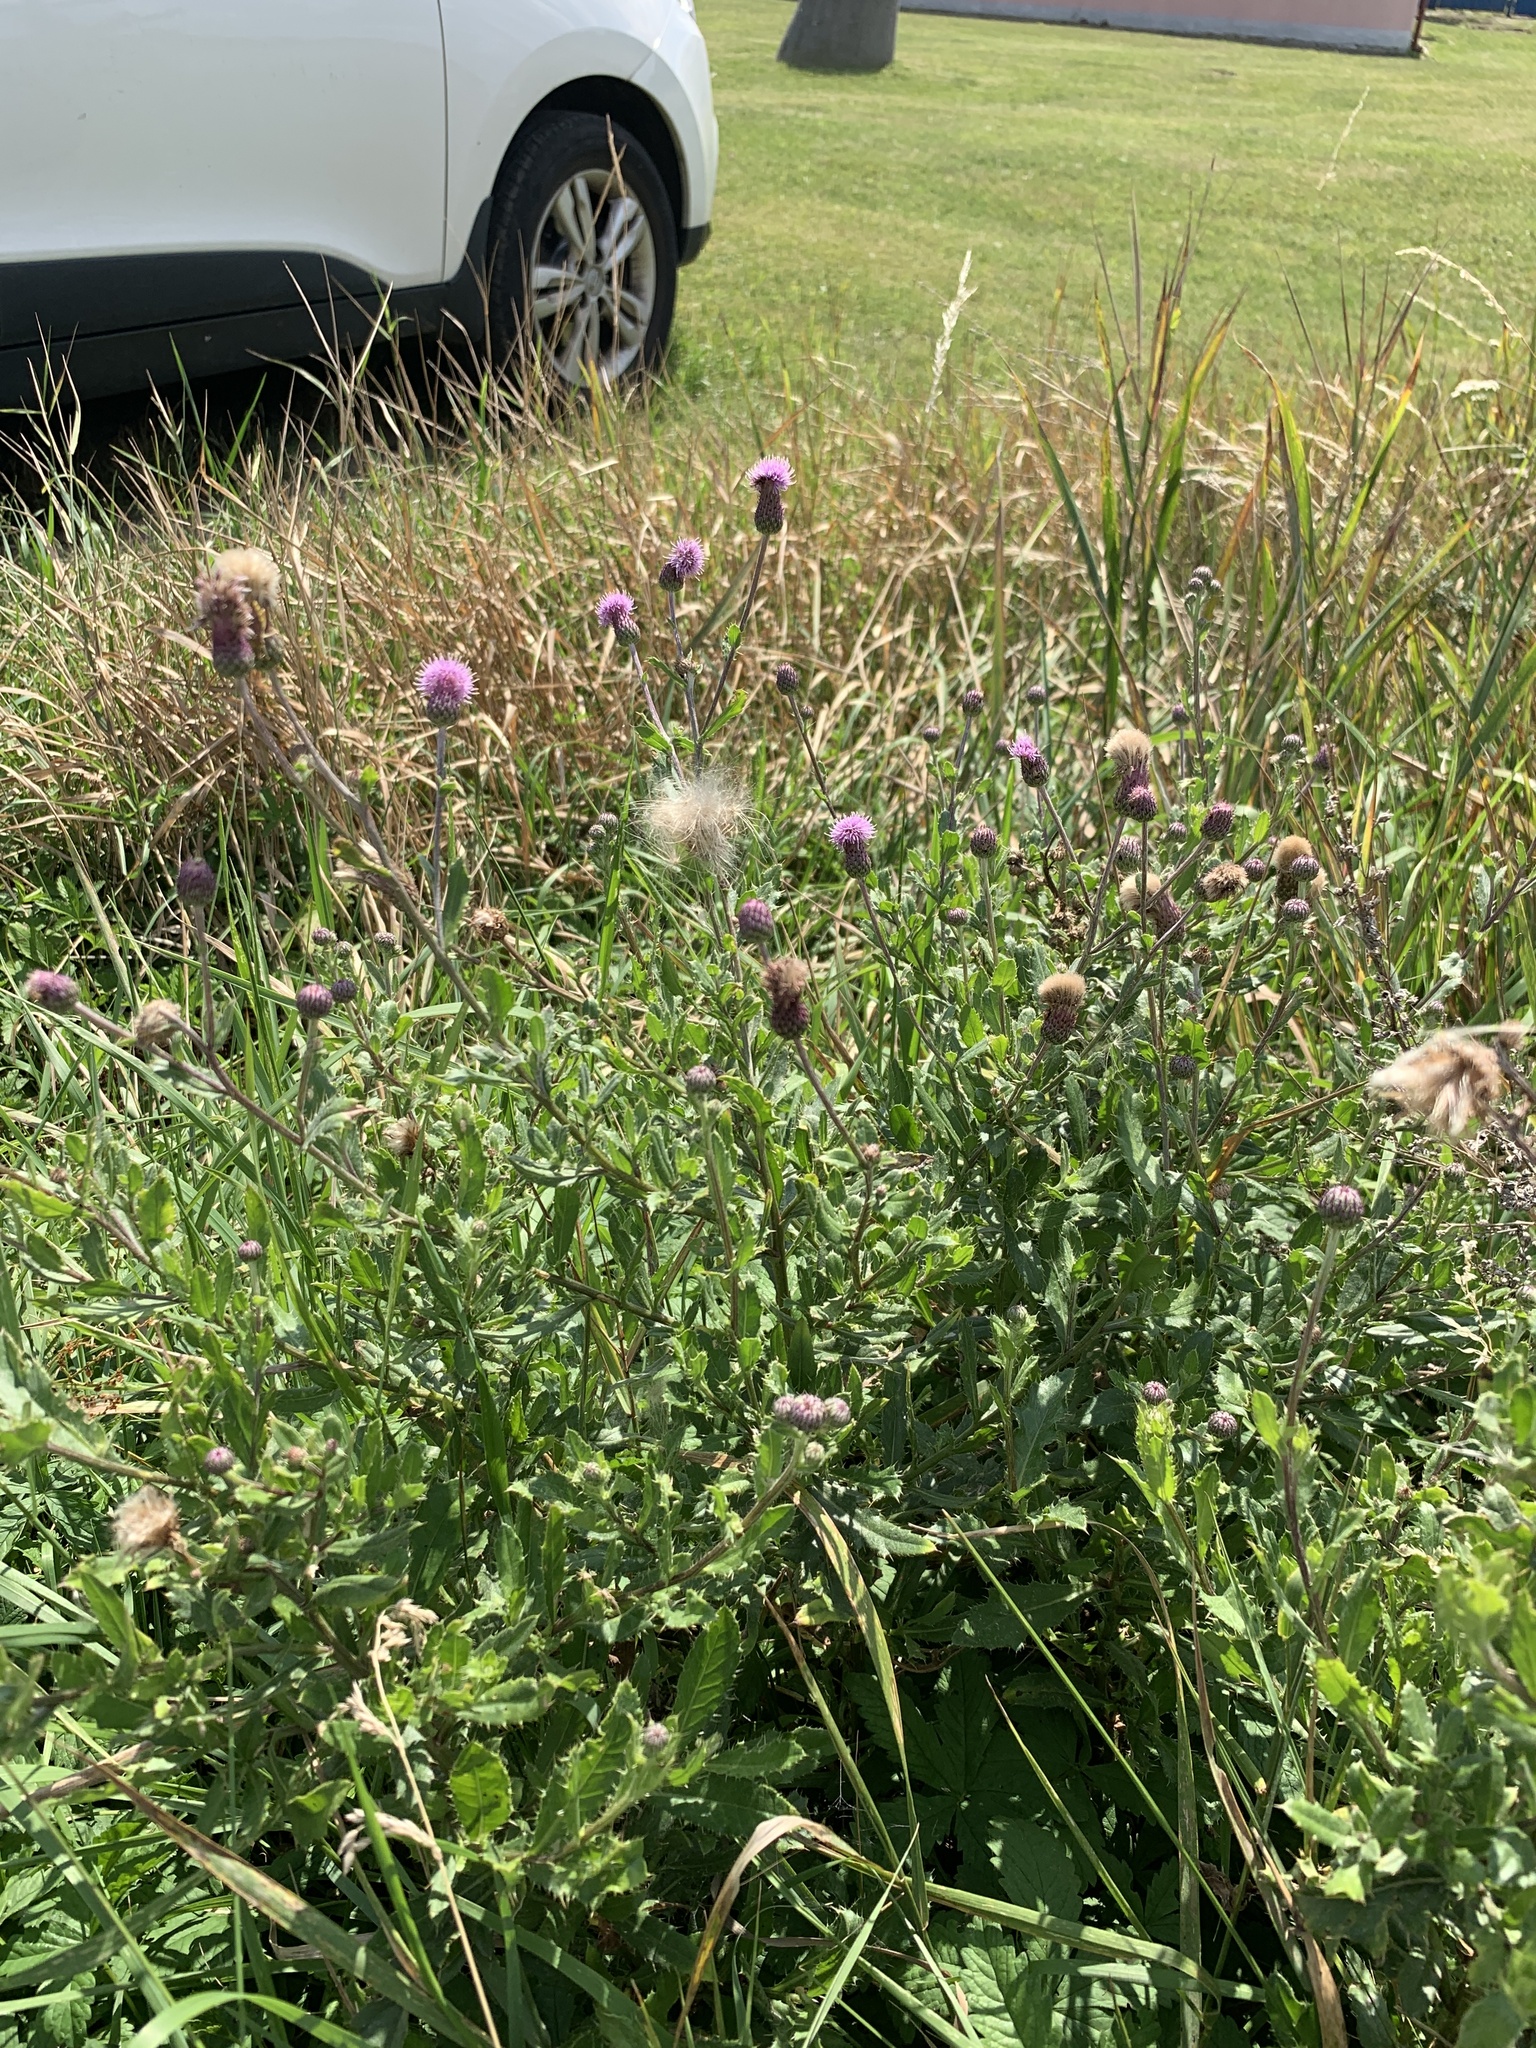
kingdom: Plantae
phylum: Tracheophyta
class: Magnoliopsida
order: Asterales
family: Asteraceae
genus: Cirsium
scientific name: Cirsium arvense
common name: Creeping thistle
